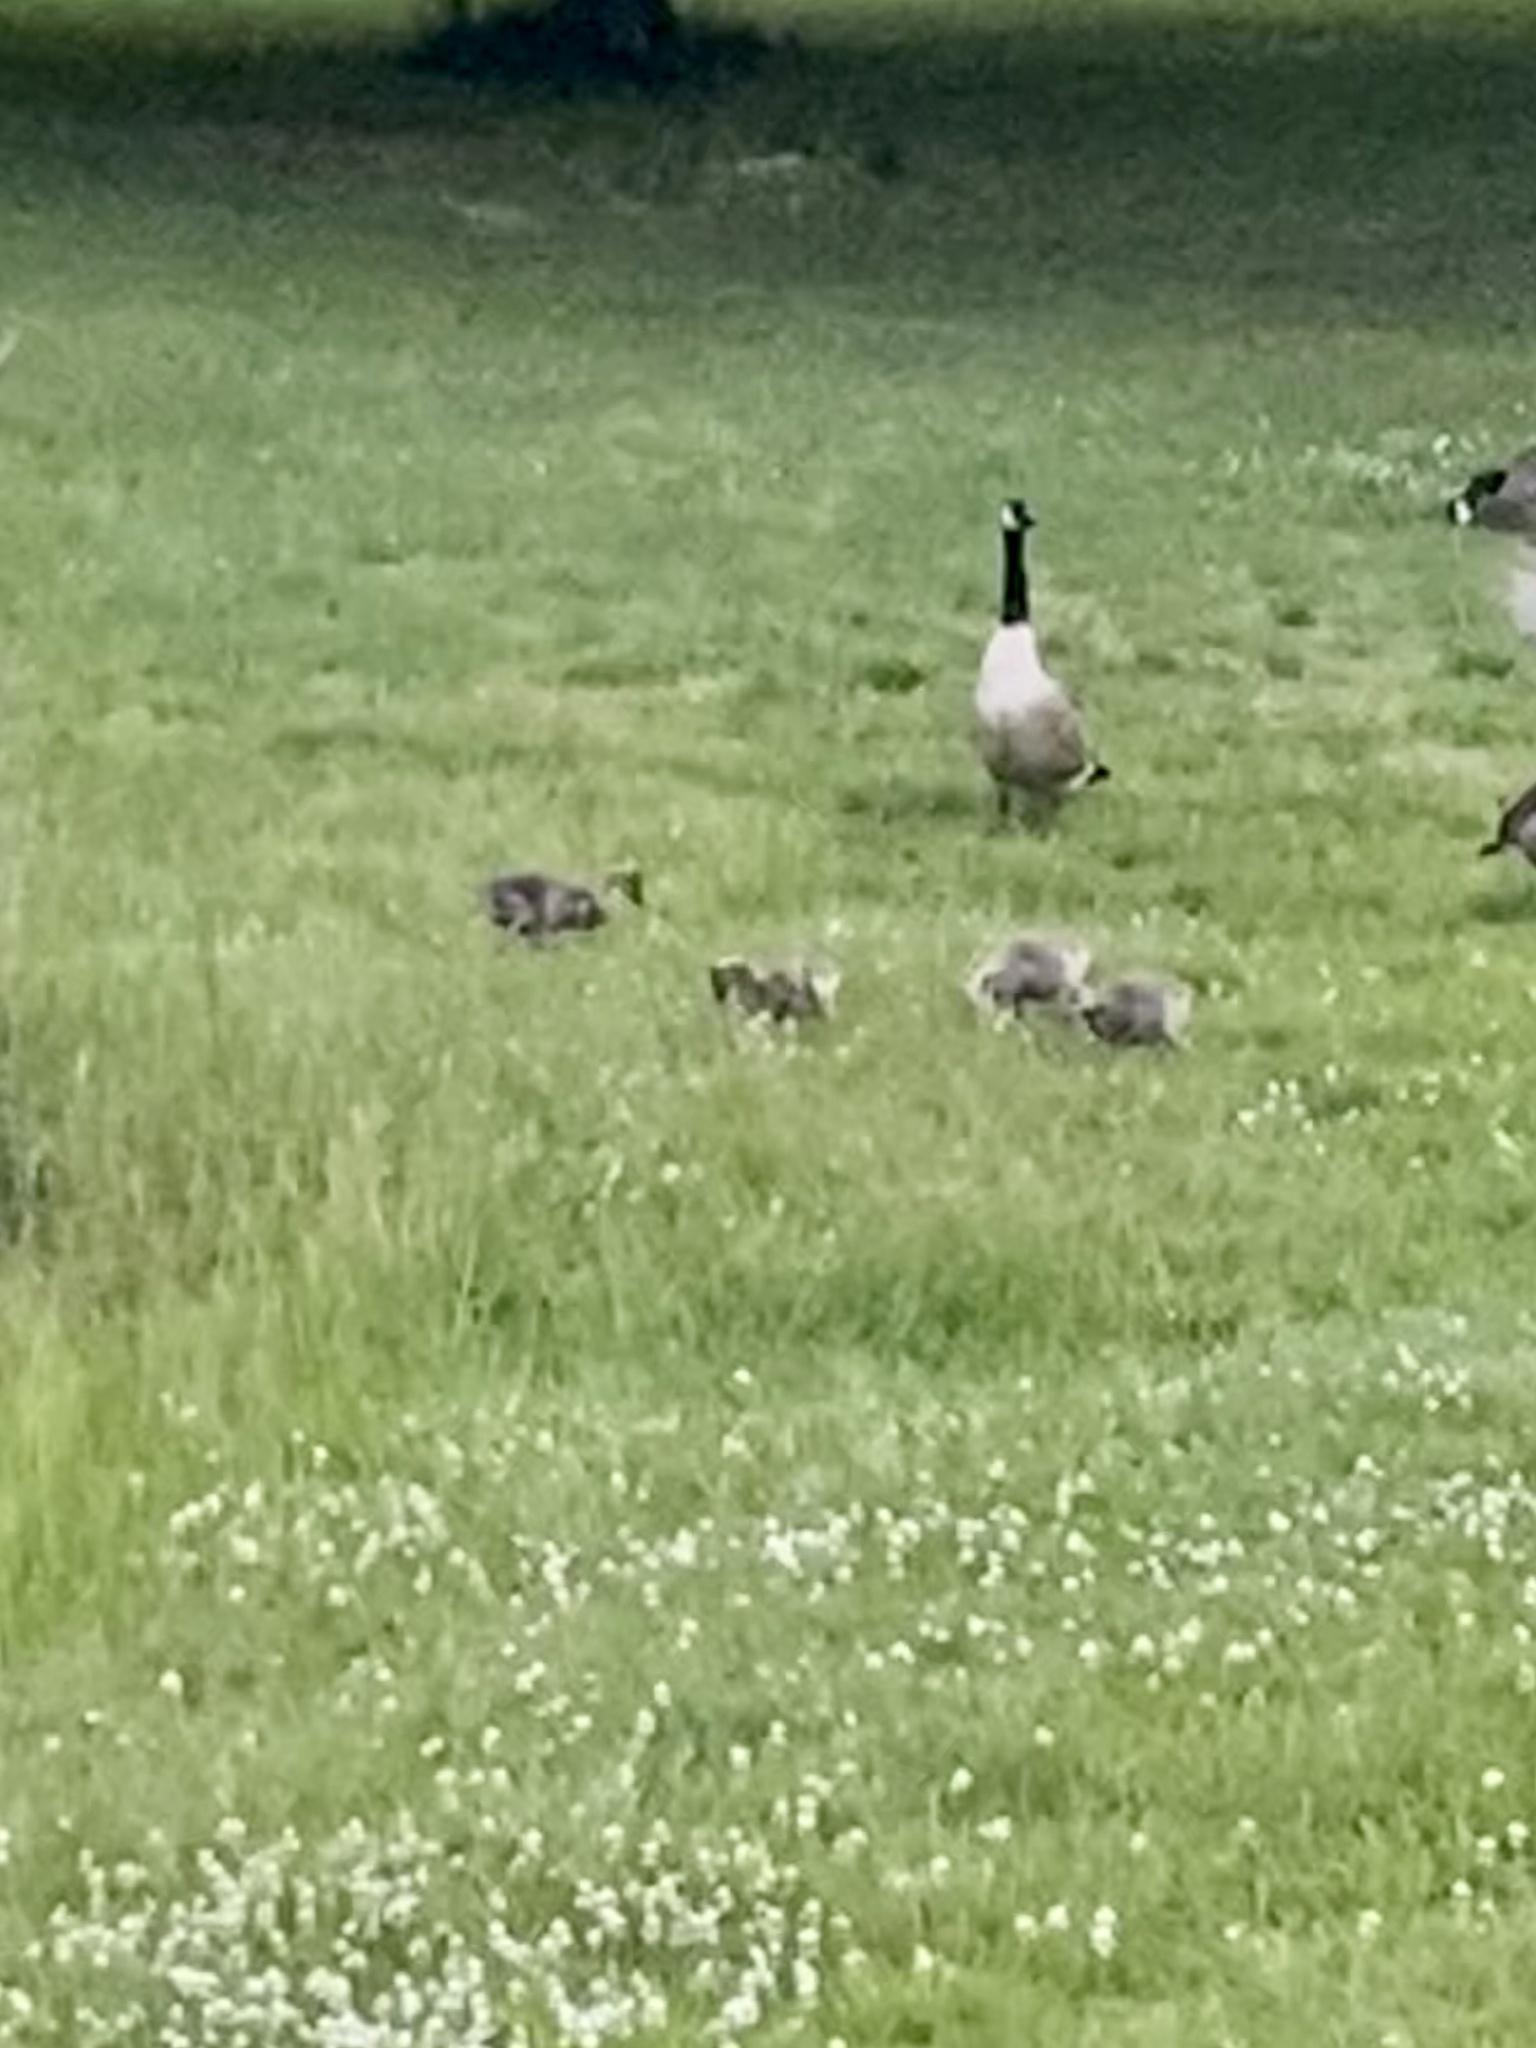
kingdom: Animalia
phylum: Chordata
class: Aves
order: Anseriformes
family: Anatidae
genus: Branta
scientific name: Branta canadensis
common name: Canada goose
